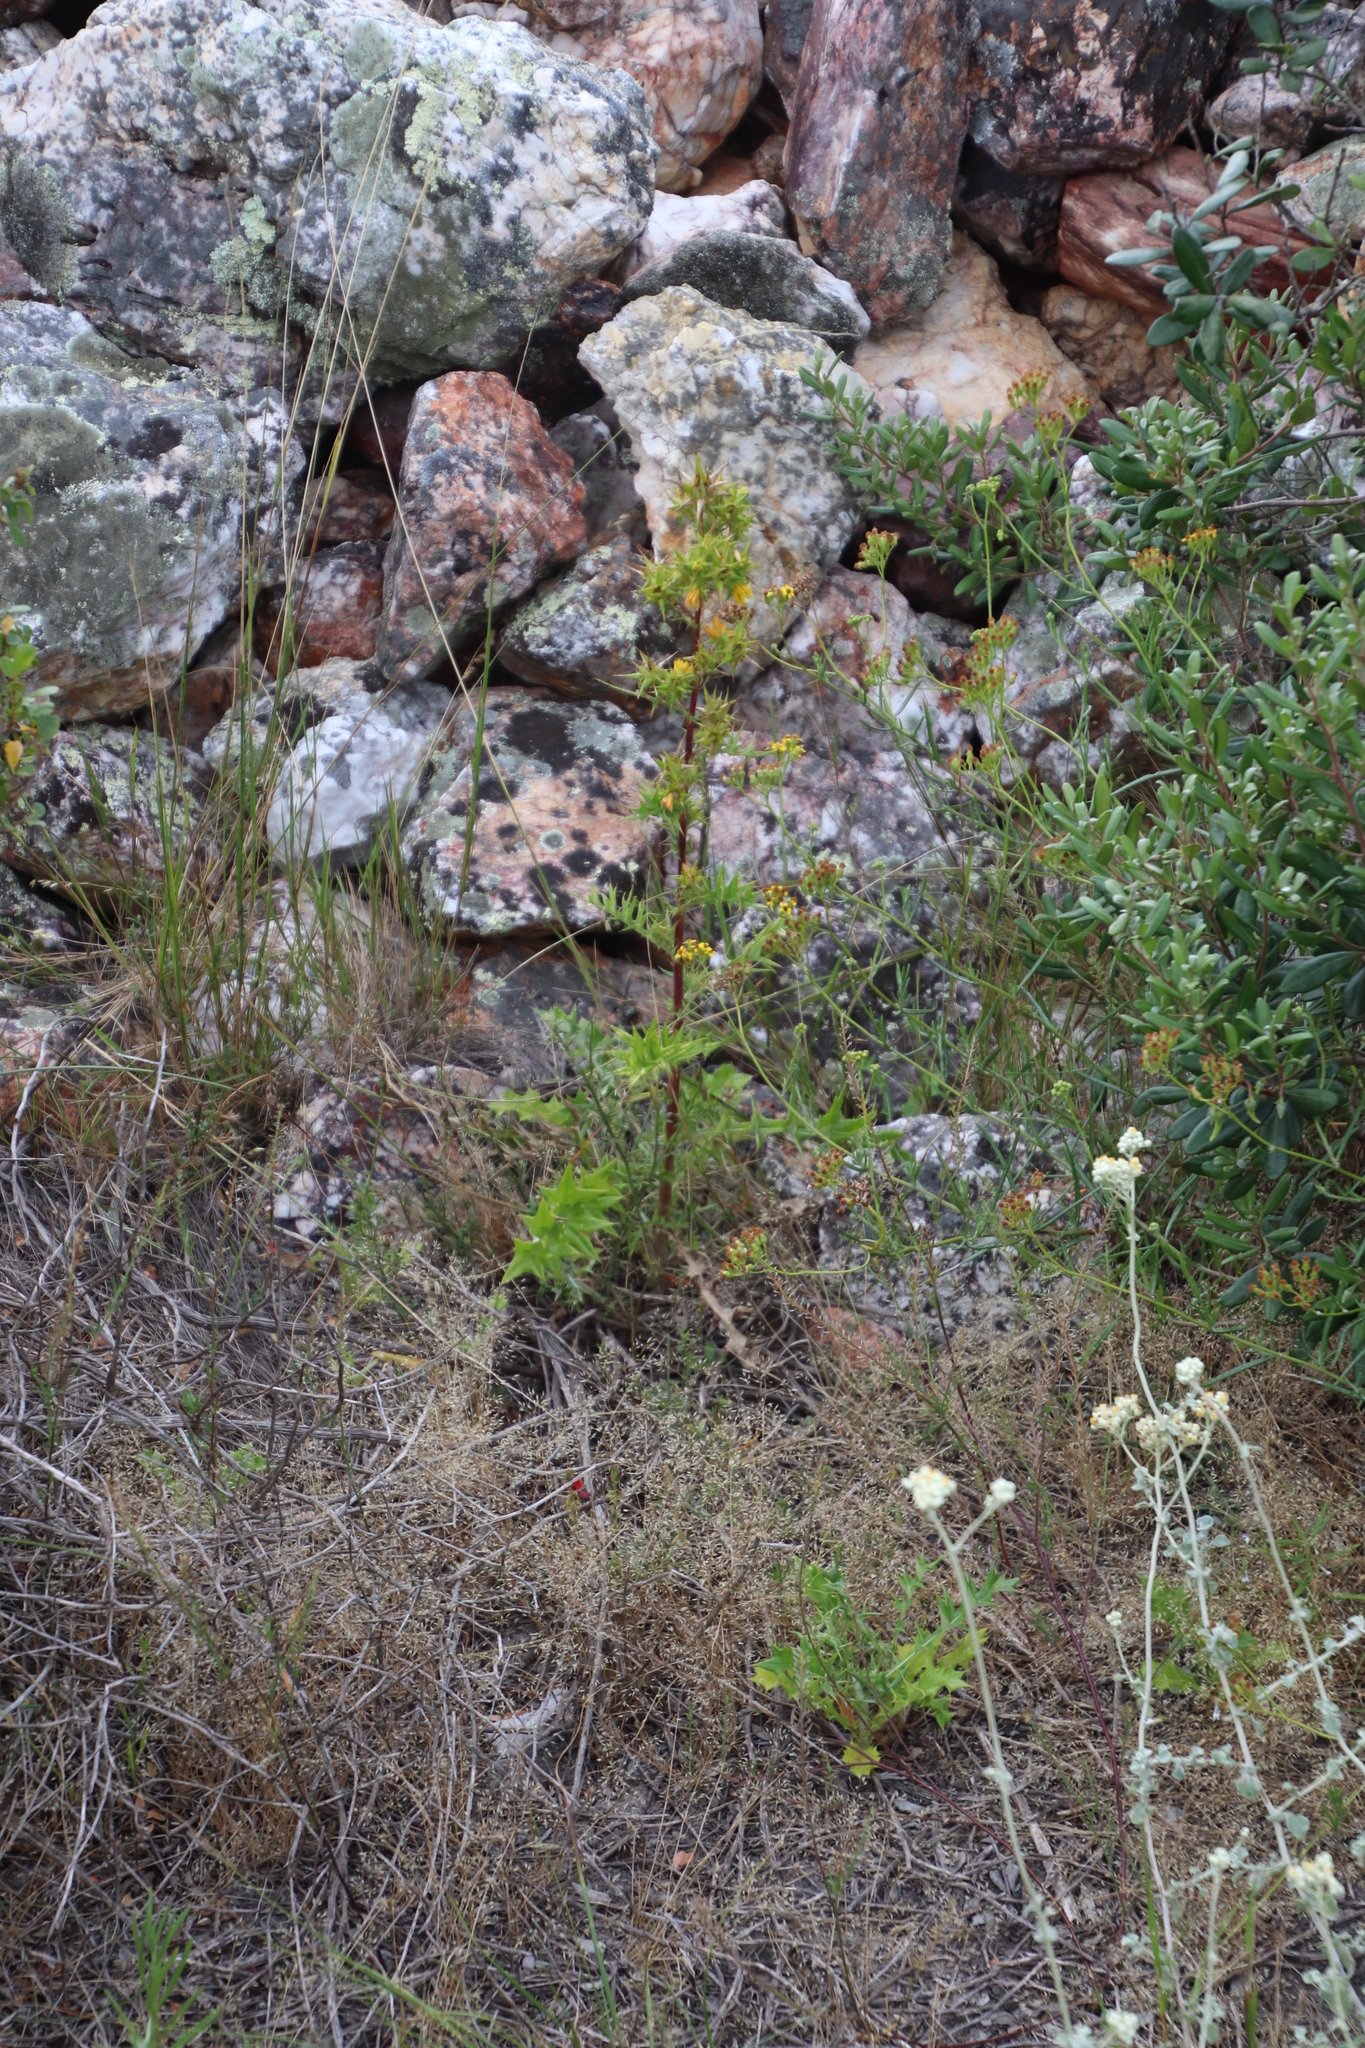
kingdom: Plantae
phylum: Tracheophyta
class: Magnoliopsida
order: Asterales
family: Asteraceae
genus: Berkheya
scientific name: Berkheya rigida
